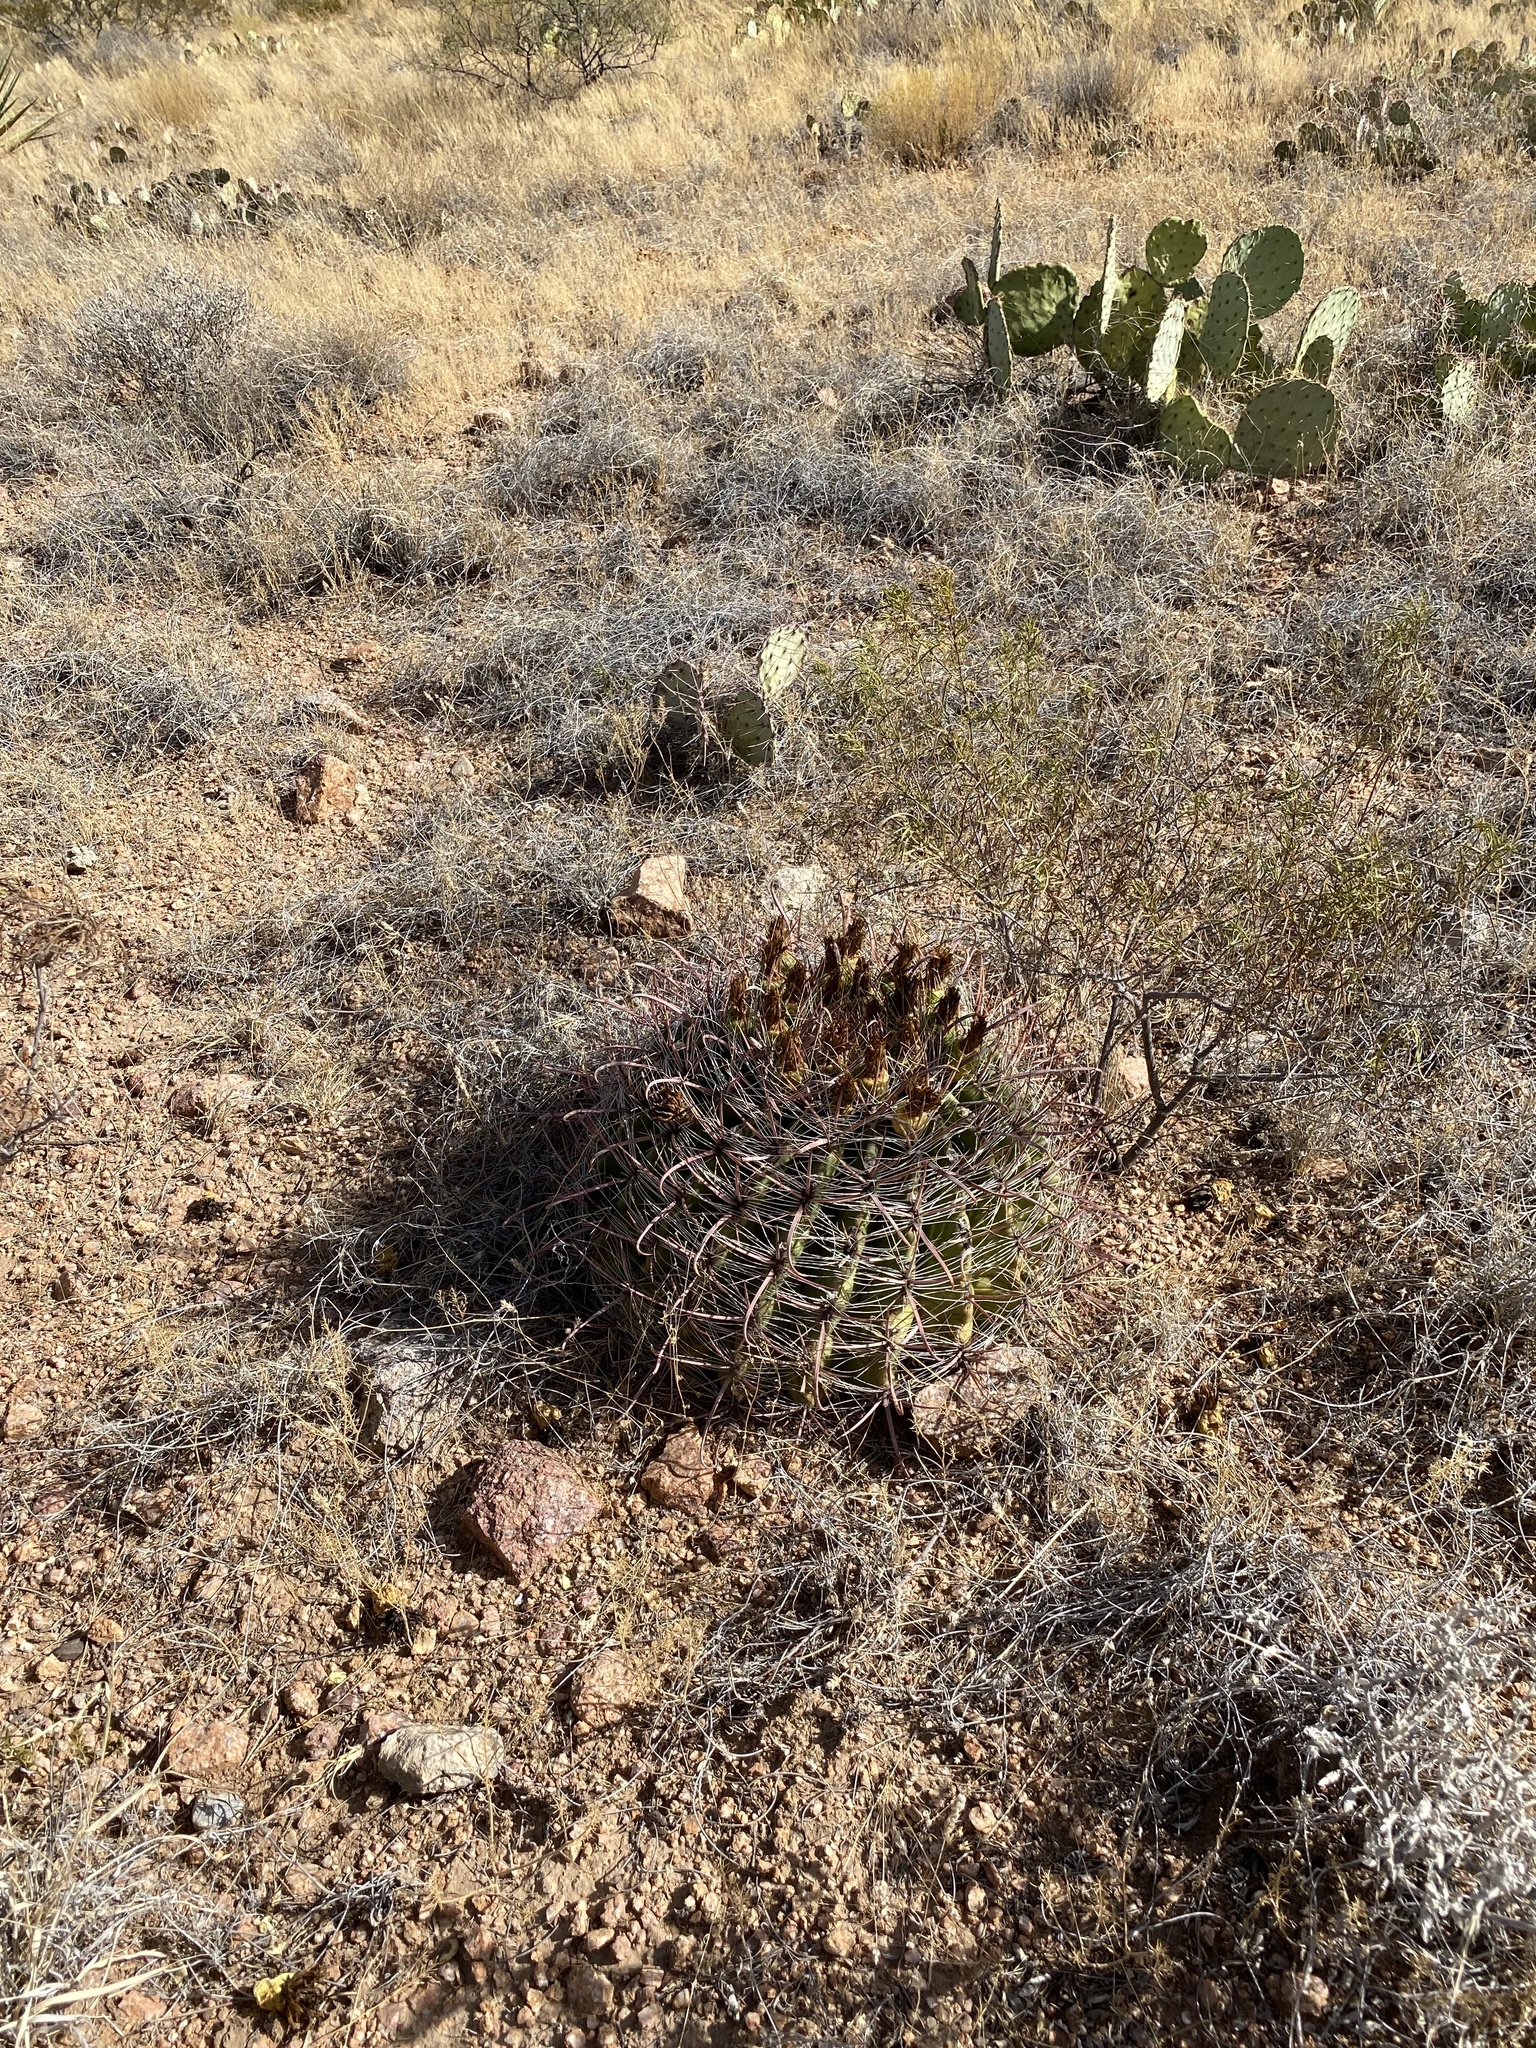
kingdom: Plantae
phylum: Tracheophyta
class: Magnoliopsida
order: Caryophyllales
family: Cactaceae
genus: Ferocactus
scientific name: Ferocactus wislizeni
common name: Candy barrel cactus
